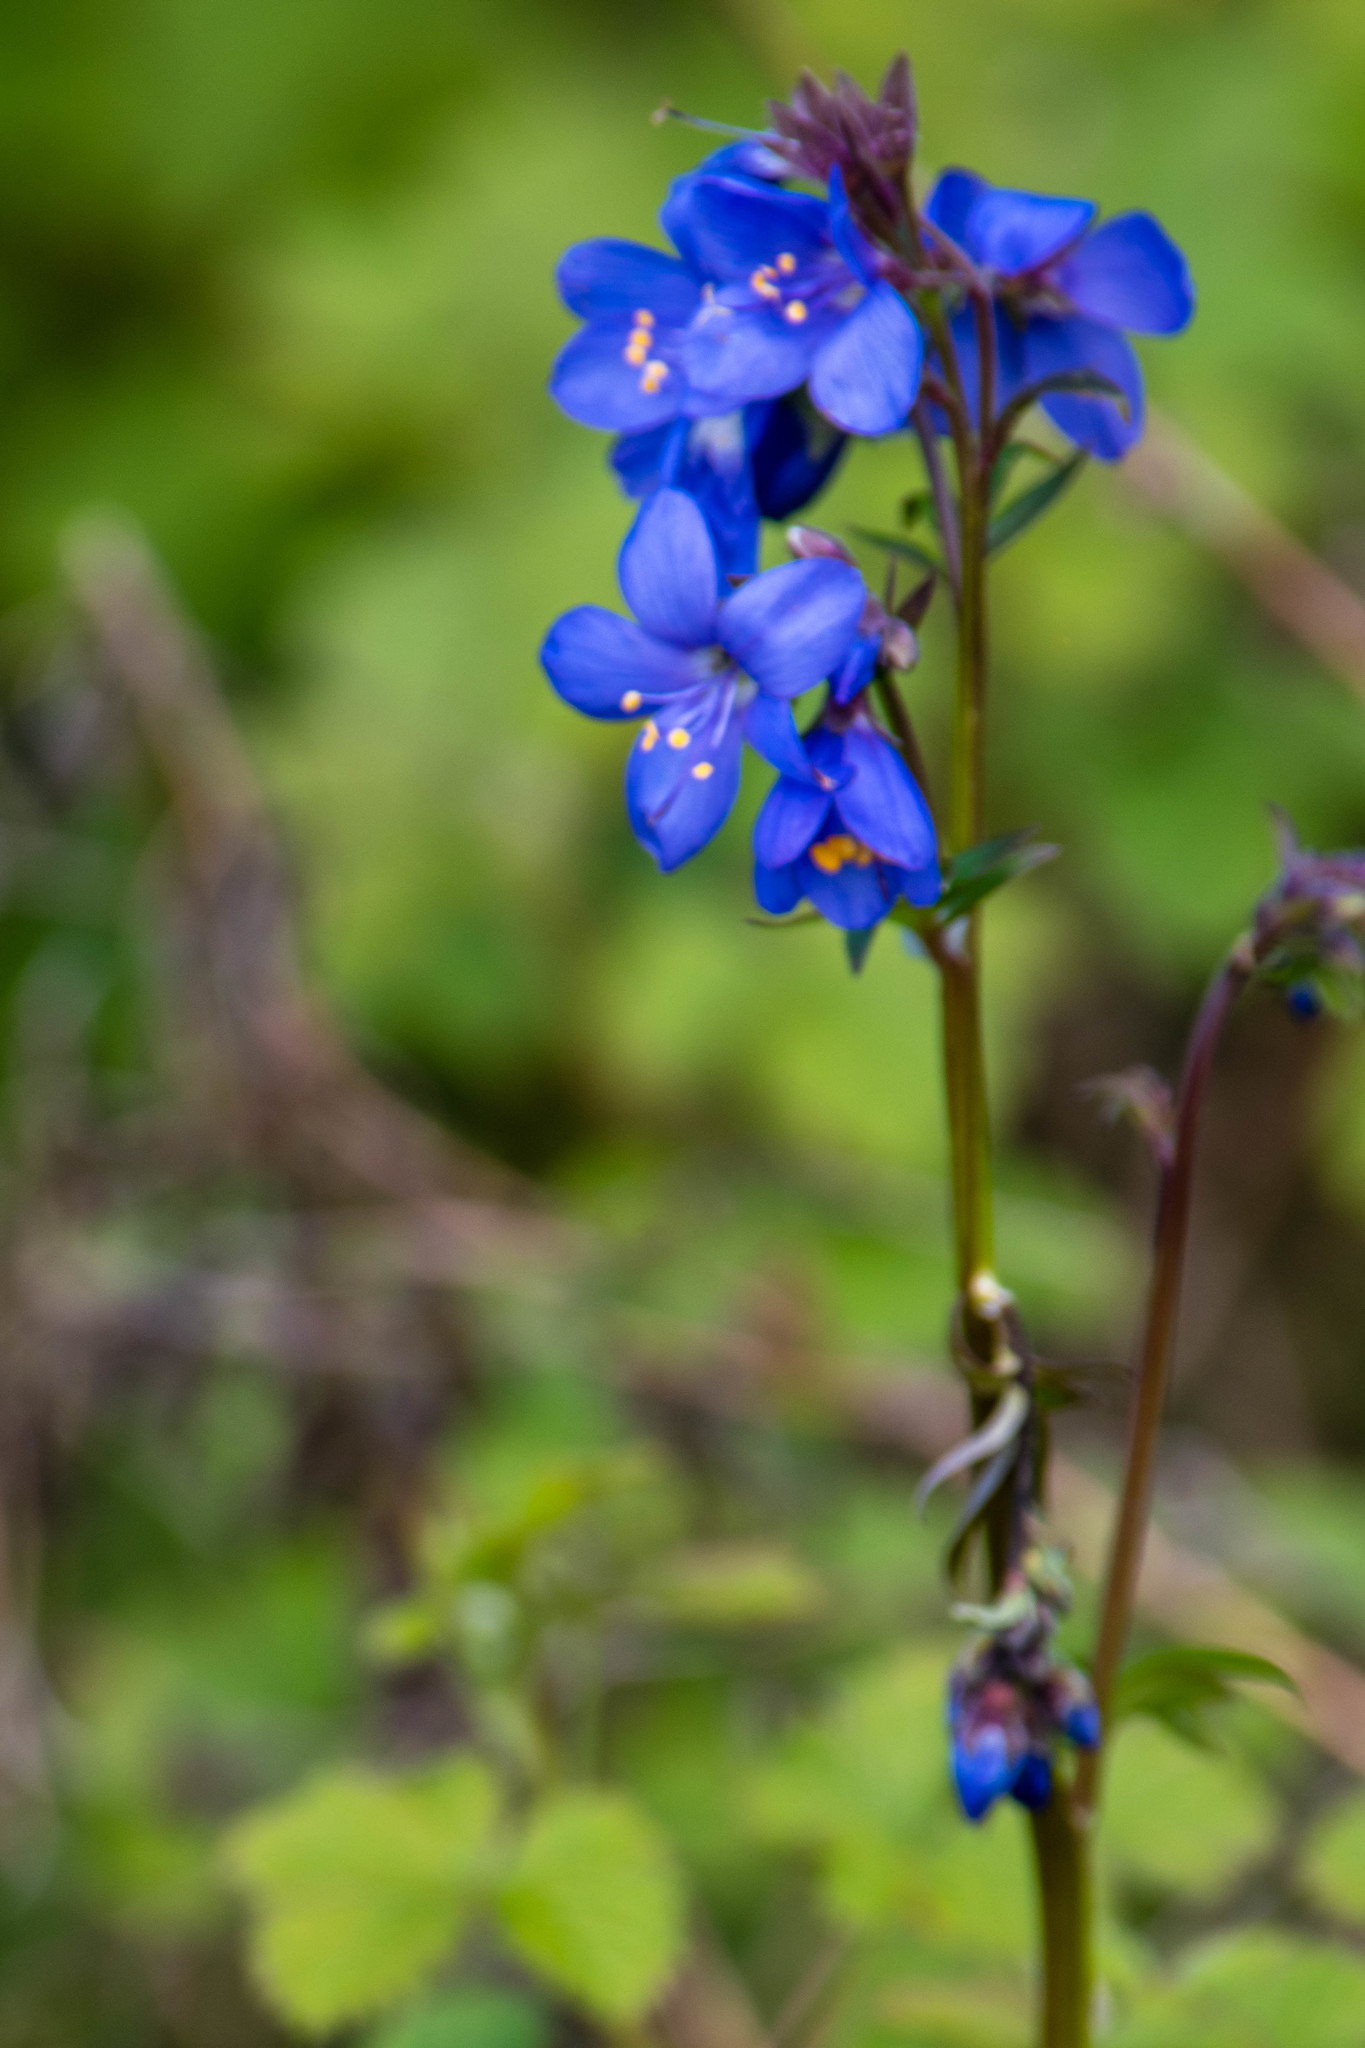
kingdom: Plantae
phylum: Tracheophyta
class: Magnoliopsida
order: Ericales
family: Polemoniaceae
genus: Polemonium
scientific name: Polemonium caeruleum
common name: Jacob's-ladder
